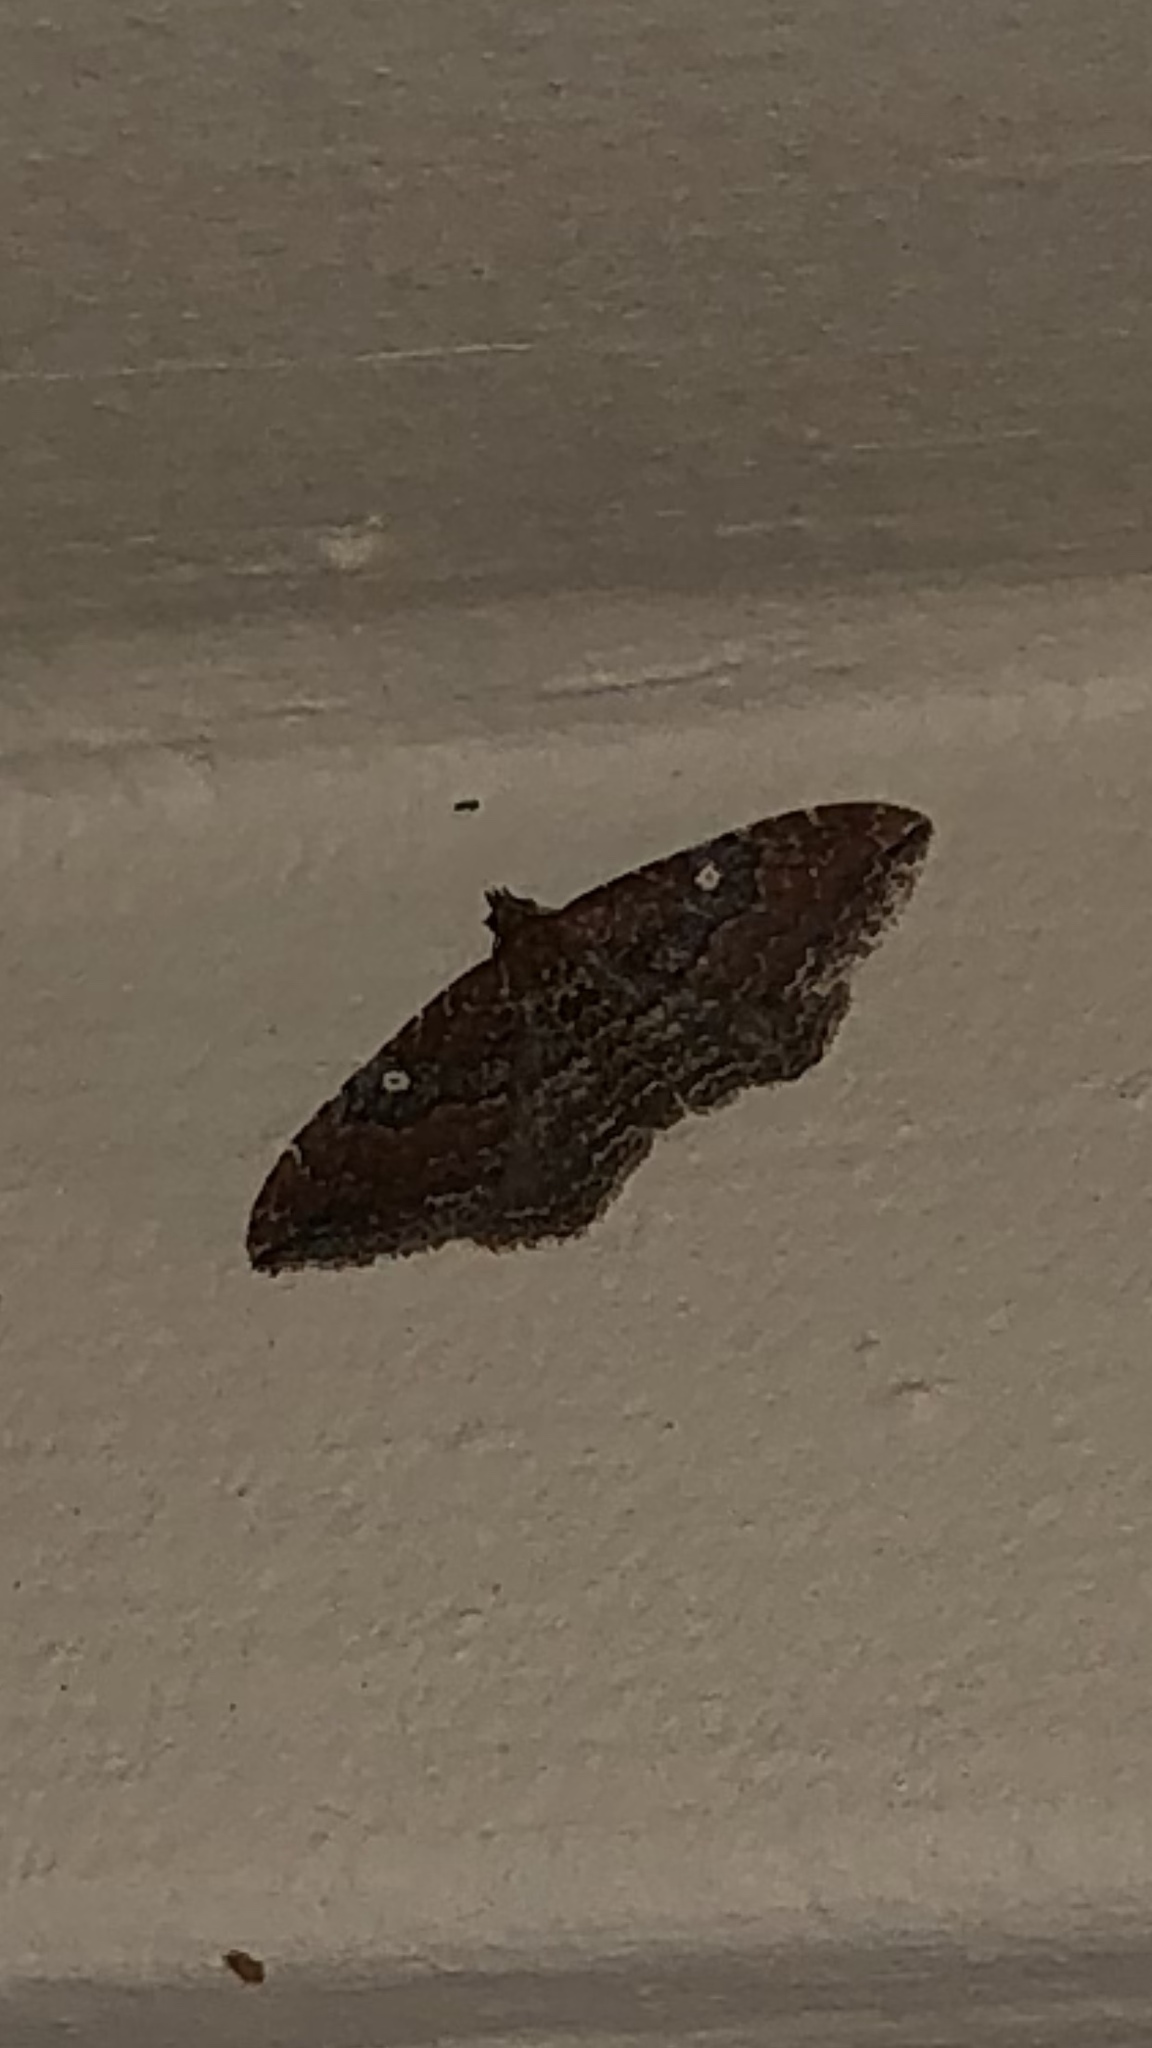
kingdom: Animalia
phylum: Arthropoda
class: Insecta
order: Lepidoptera
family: Geometridae
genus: Orthonama
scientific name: Orthonama obstipata
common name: The gem
